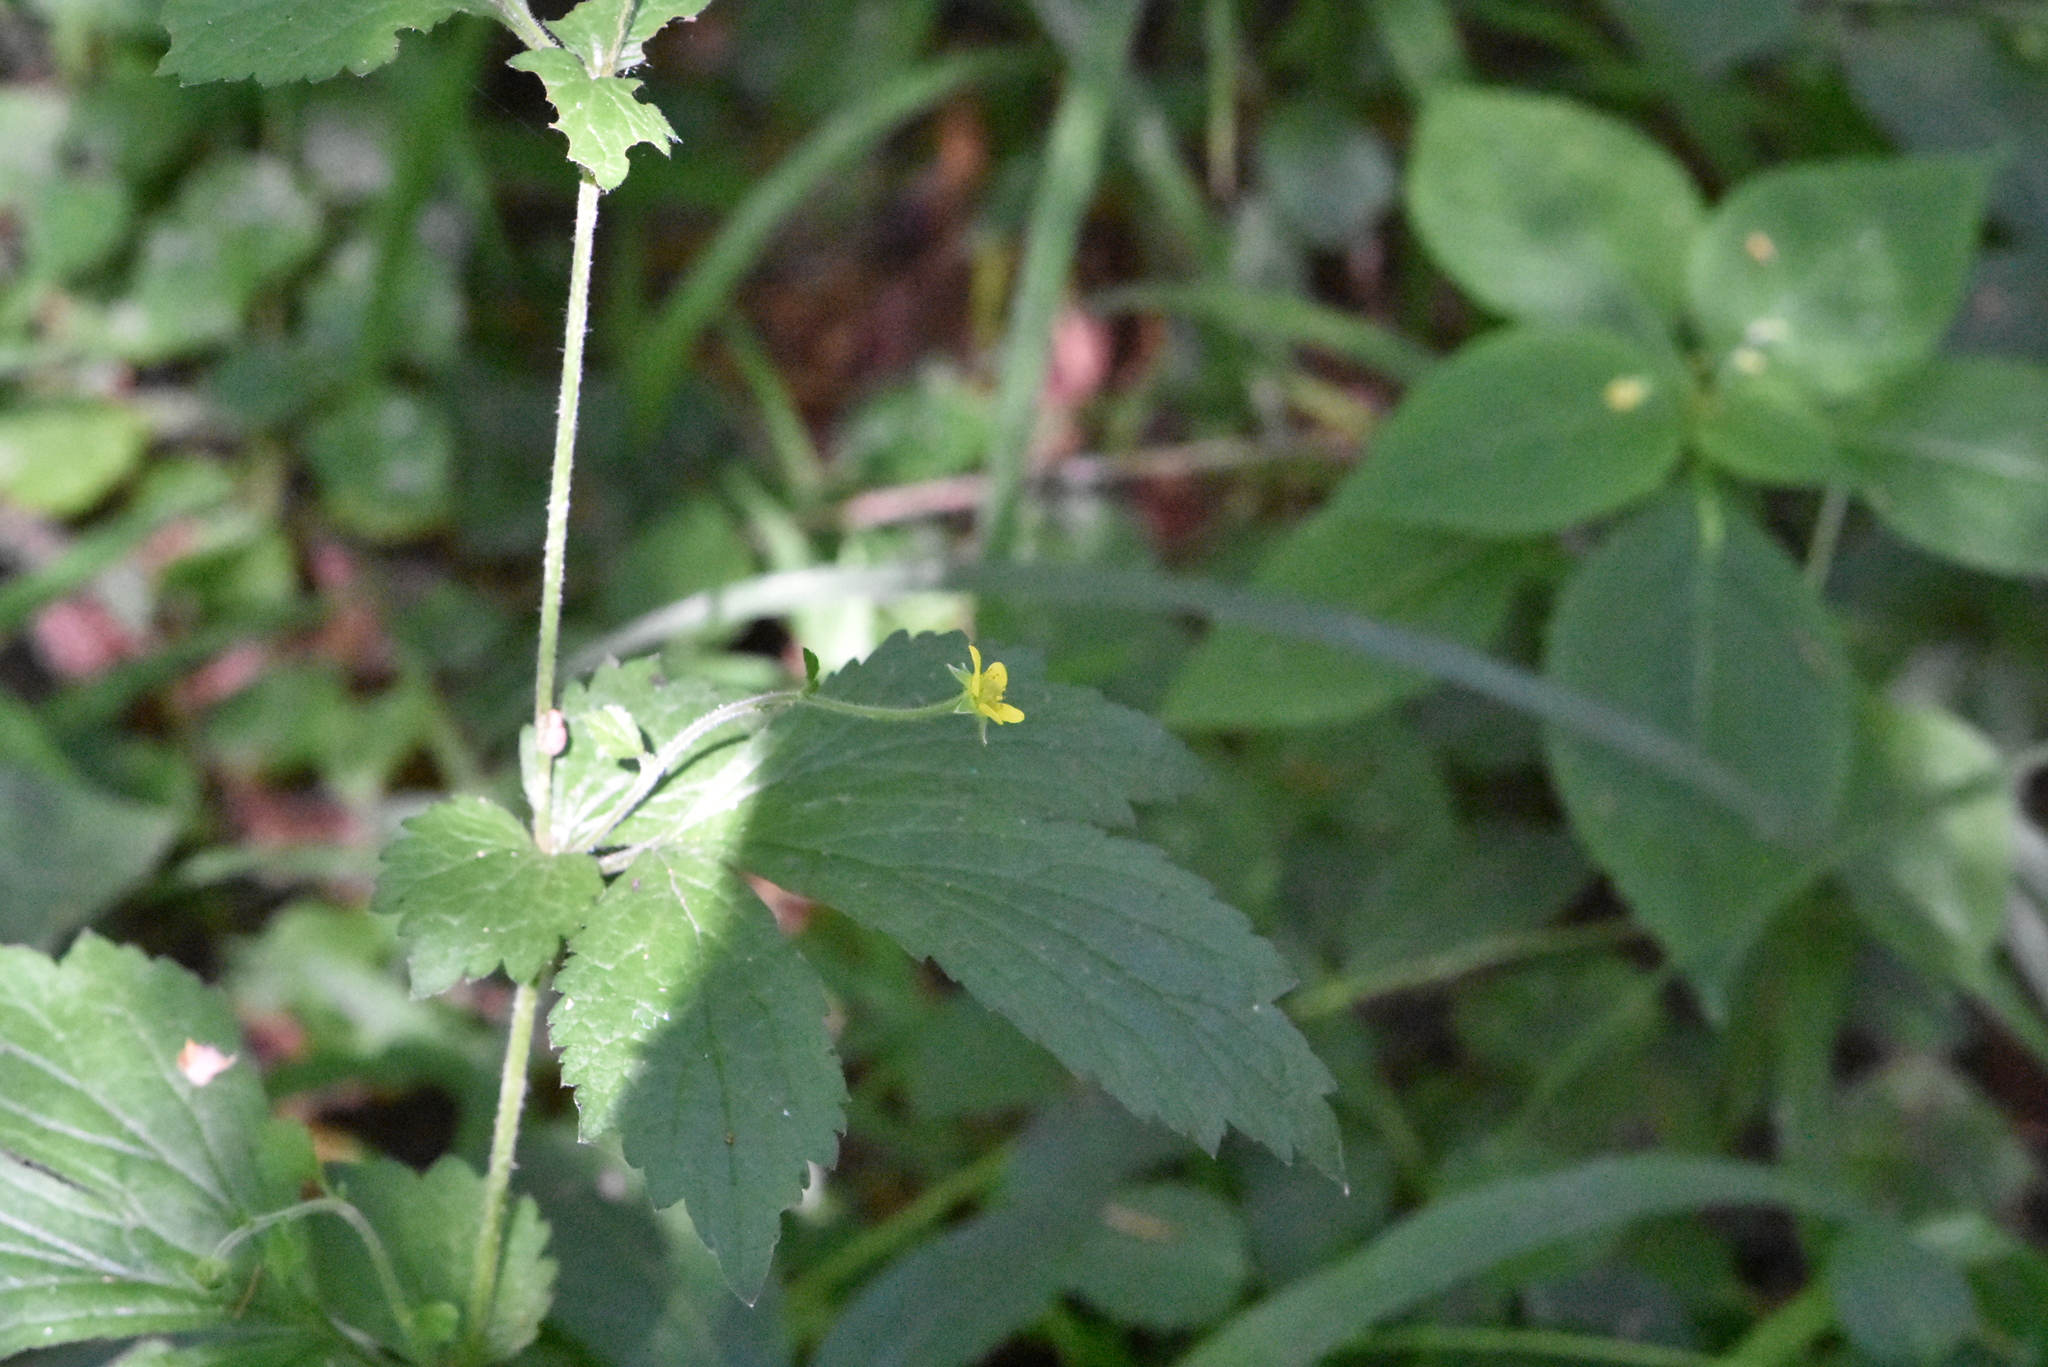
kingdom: Plantae
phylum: Tracheophyta
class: Magnoliopsida
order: Rosales
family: Rosaceae
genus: Geum
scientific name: Geum urbanum
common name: Wood avens
